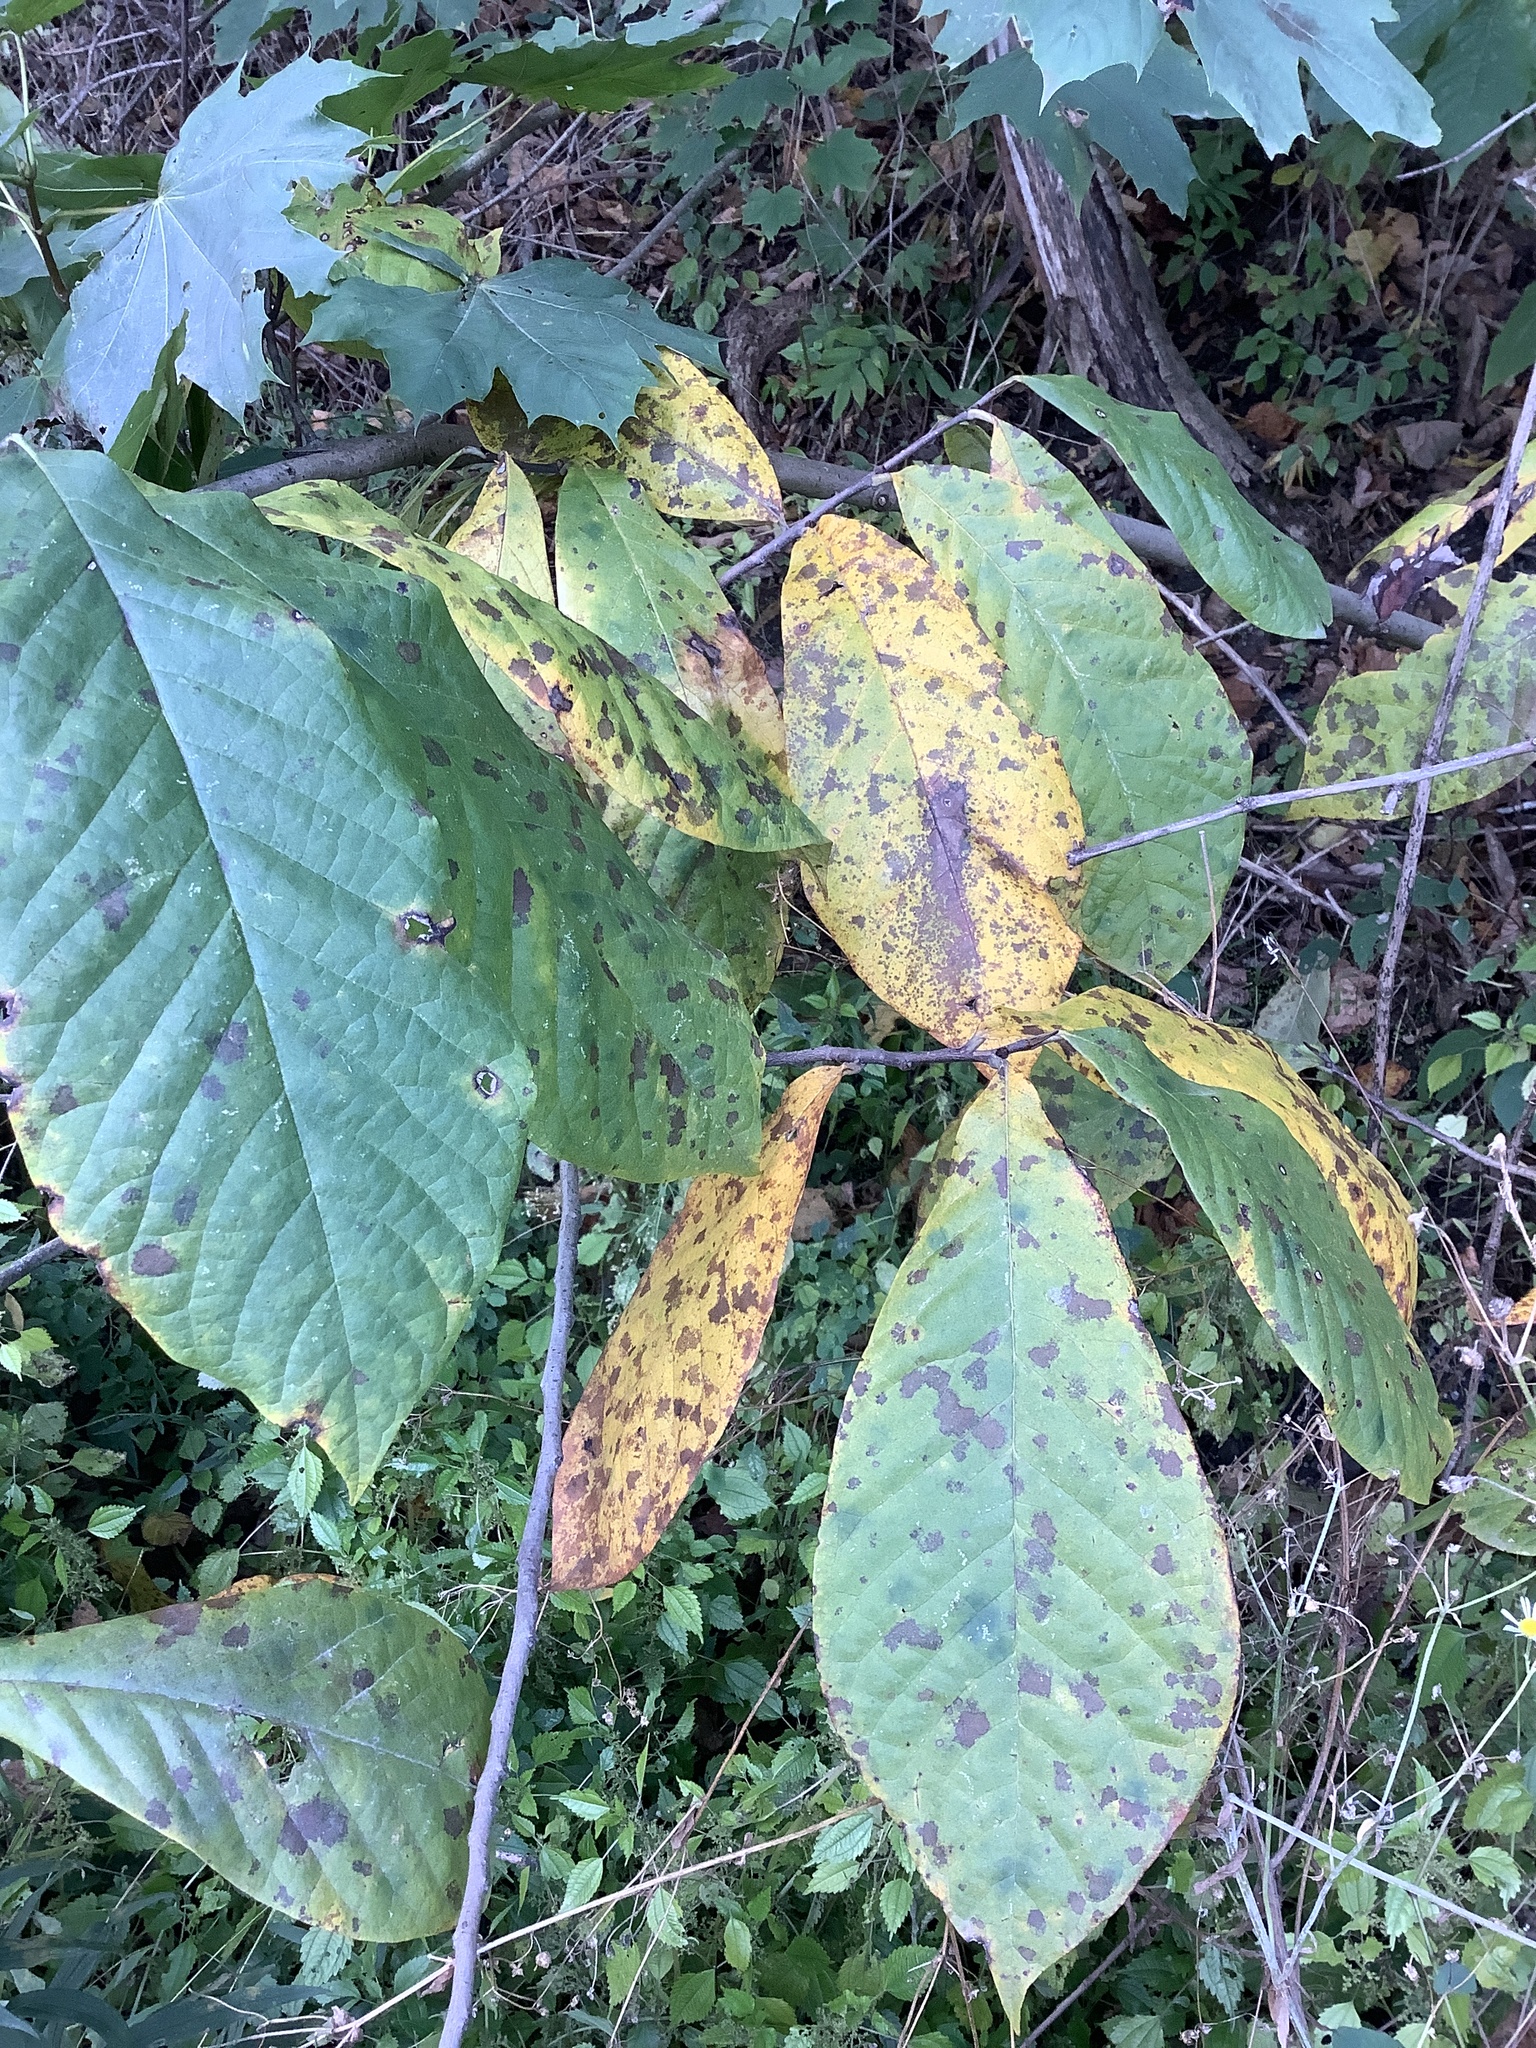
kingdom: Plantae
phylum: Tracheophyta
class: Magnoliopsida
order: Magnoliales
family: Annonaceae
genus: Asimina
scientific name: Asimina triloba
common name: Dog-banana
